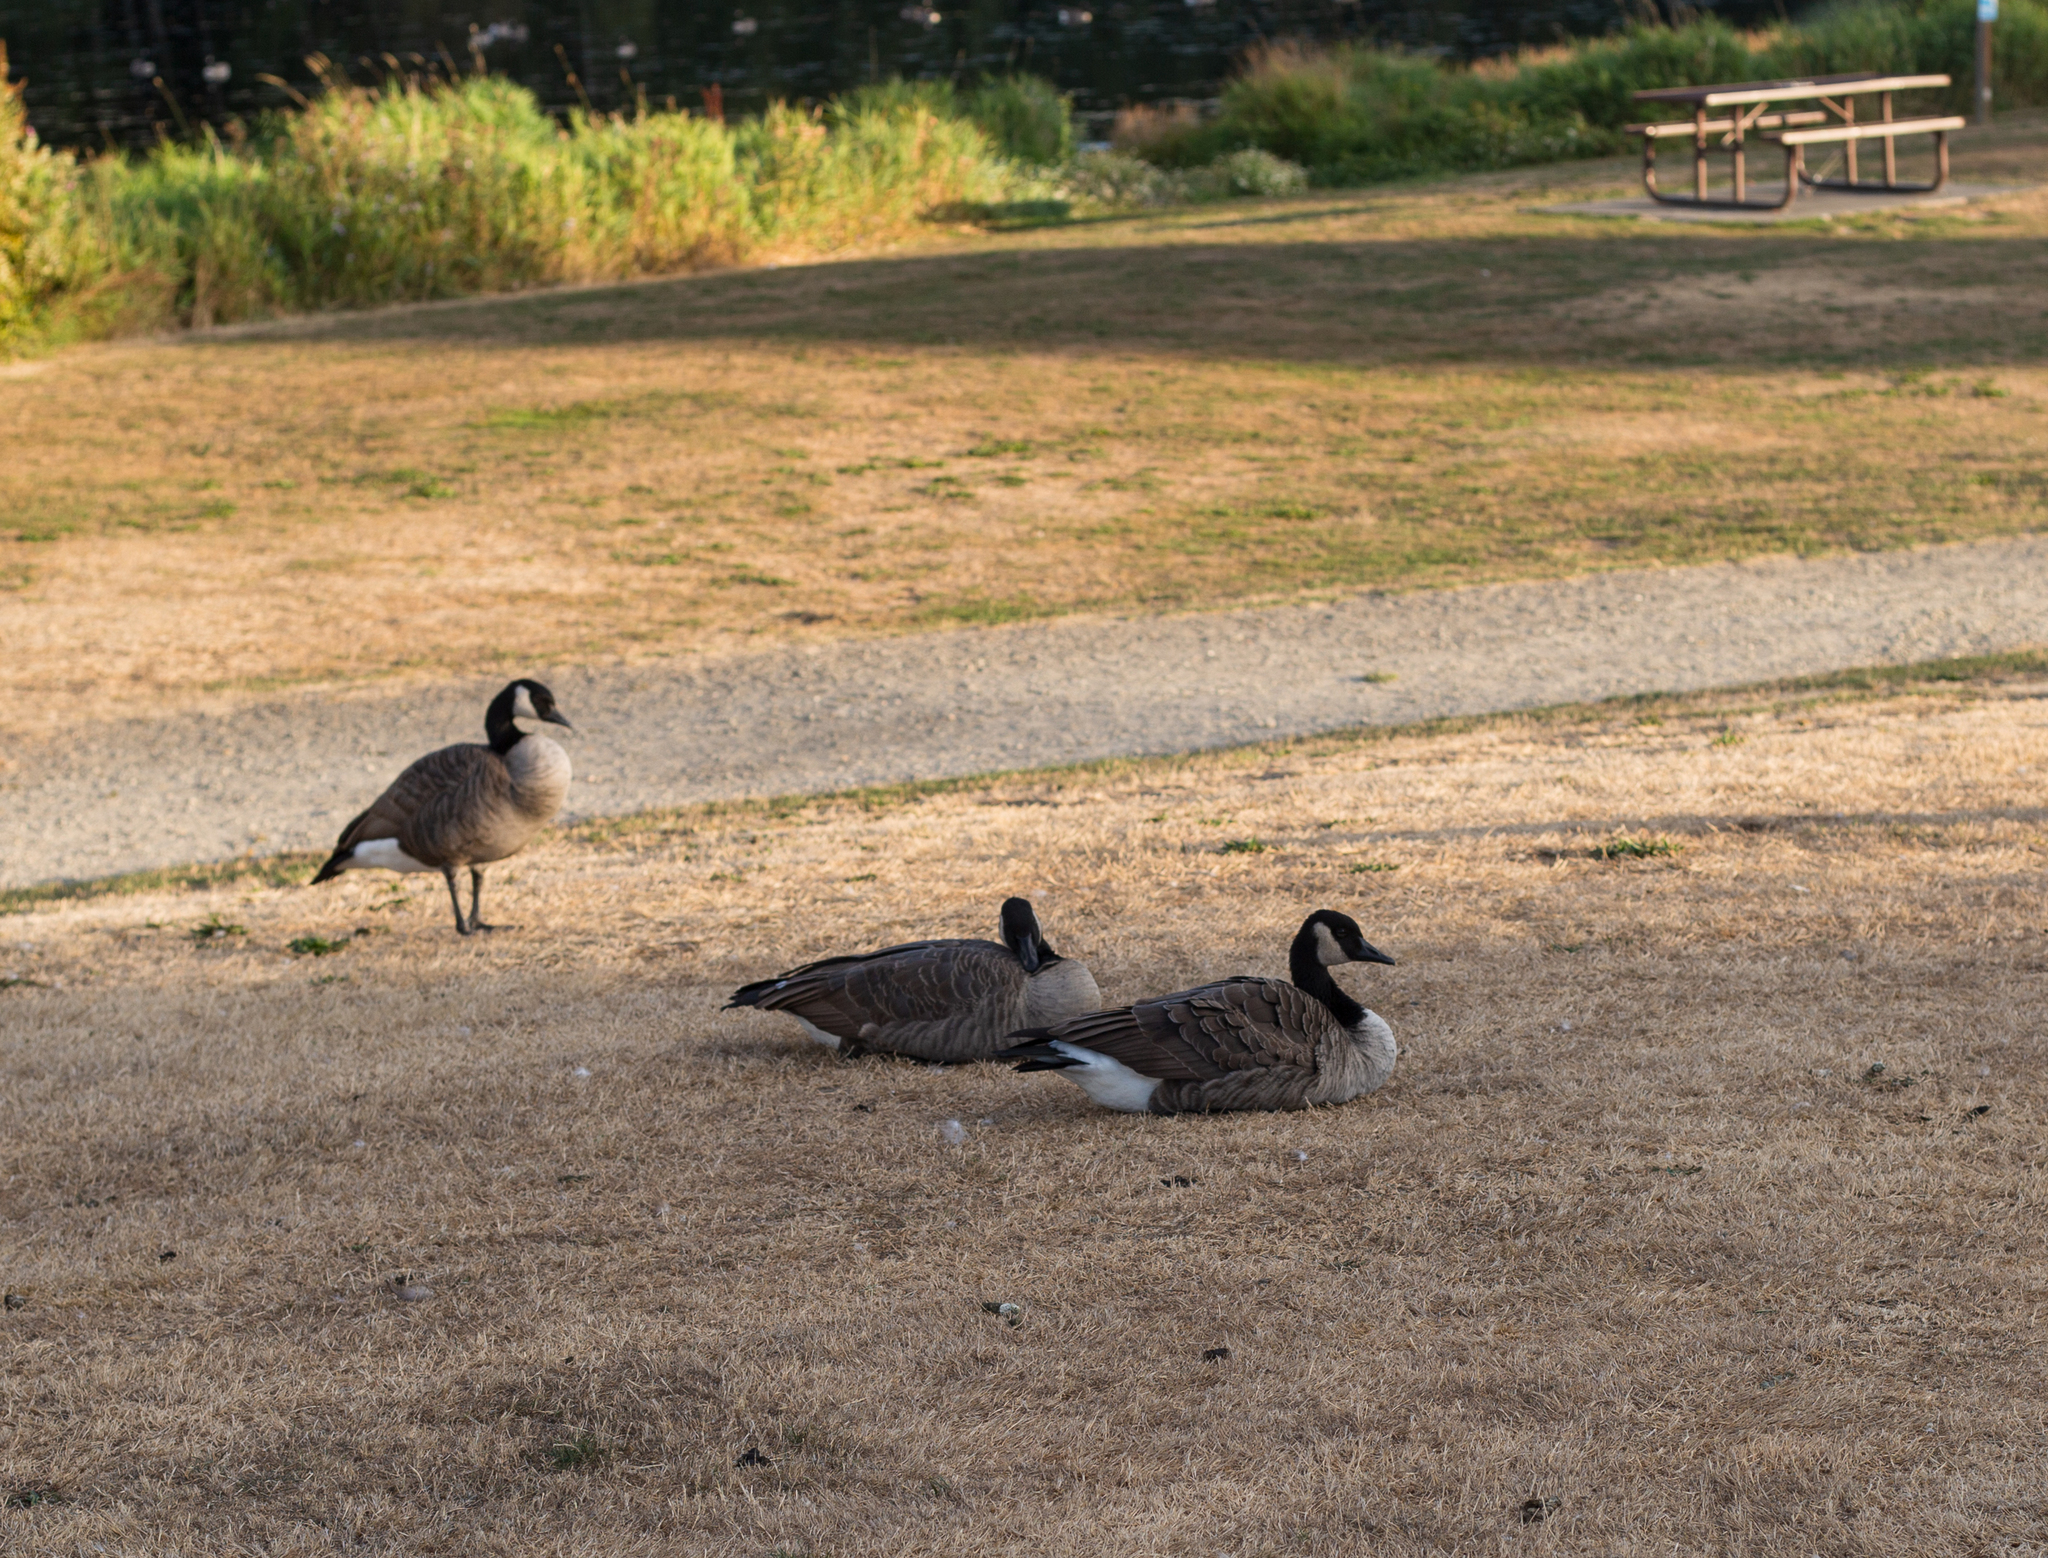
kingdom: Animalia
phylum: Chordata
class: Aves
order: Anseriformes
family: Anatidae
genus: Branta
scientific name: Branta canadensis
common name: Canada goose
